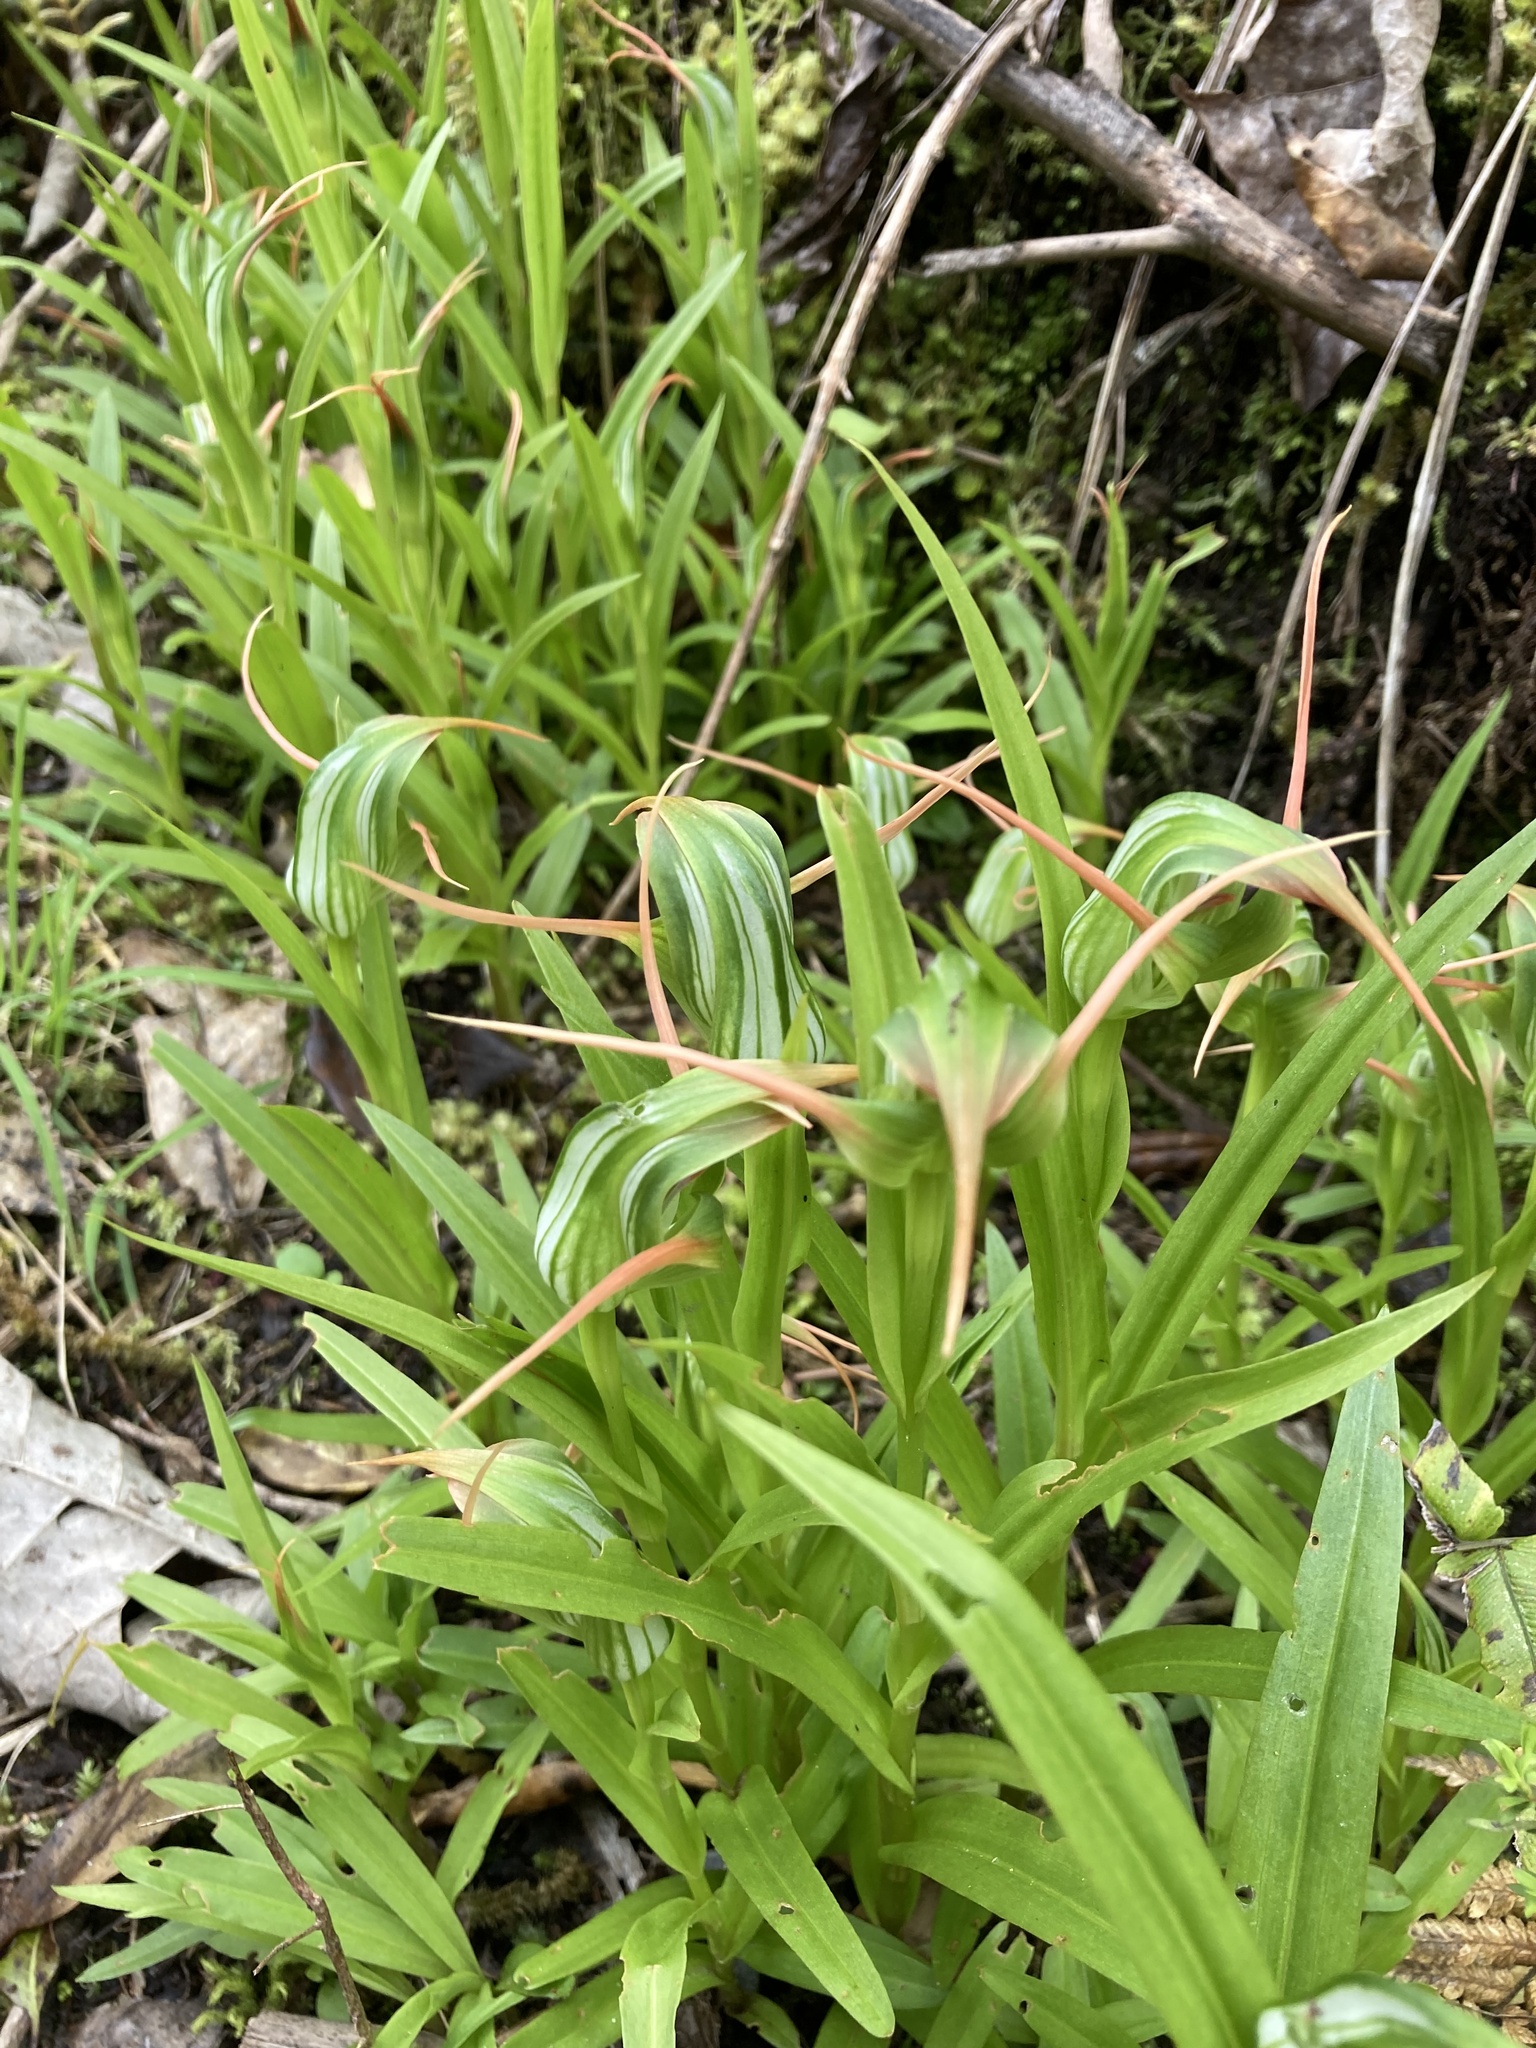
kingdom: Plantae
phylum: Tracheophyta
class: Liliopsida
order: Asparagales
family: Orchidaceae
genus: Pterostylis
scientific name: Pterostylis banksii
